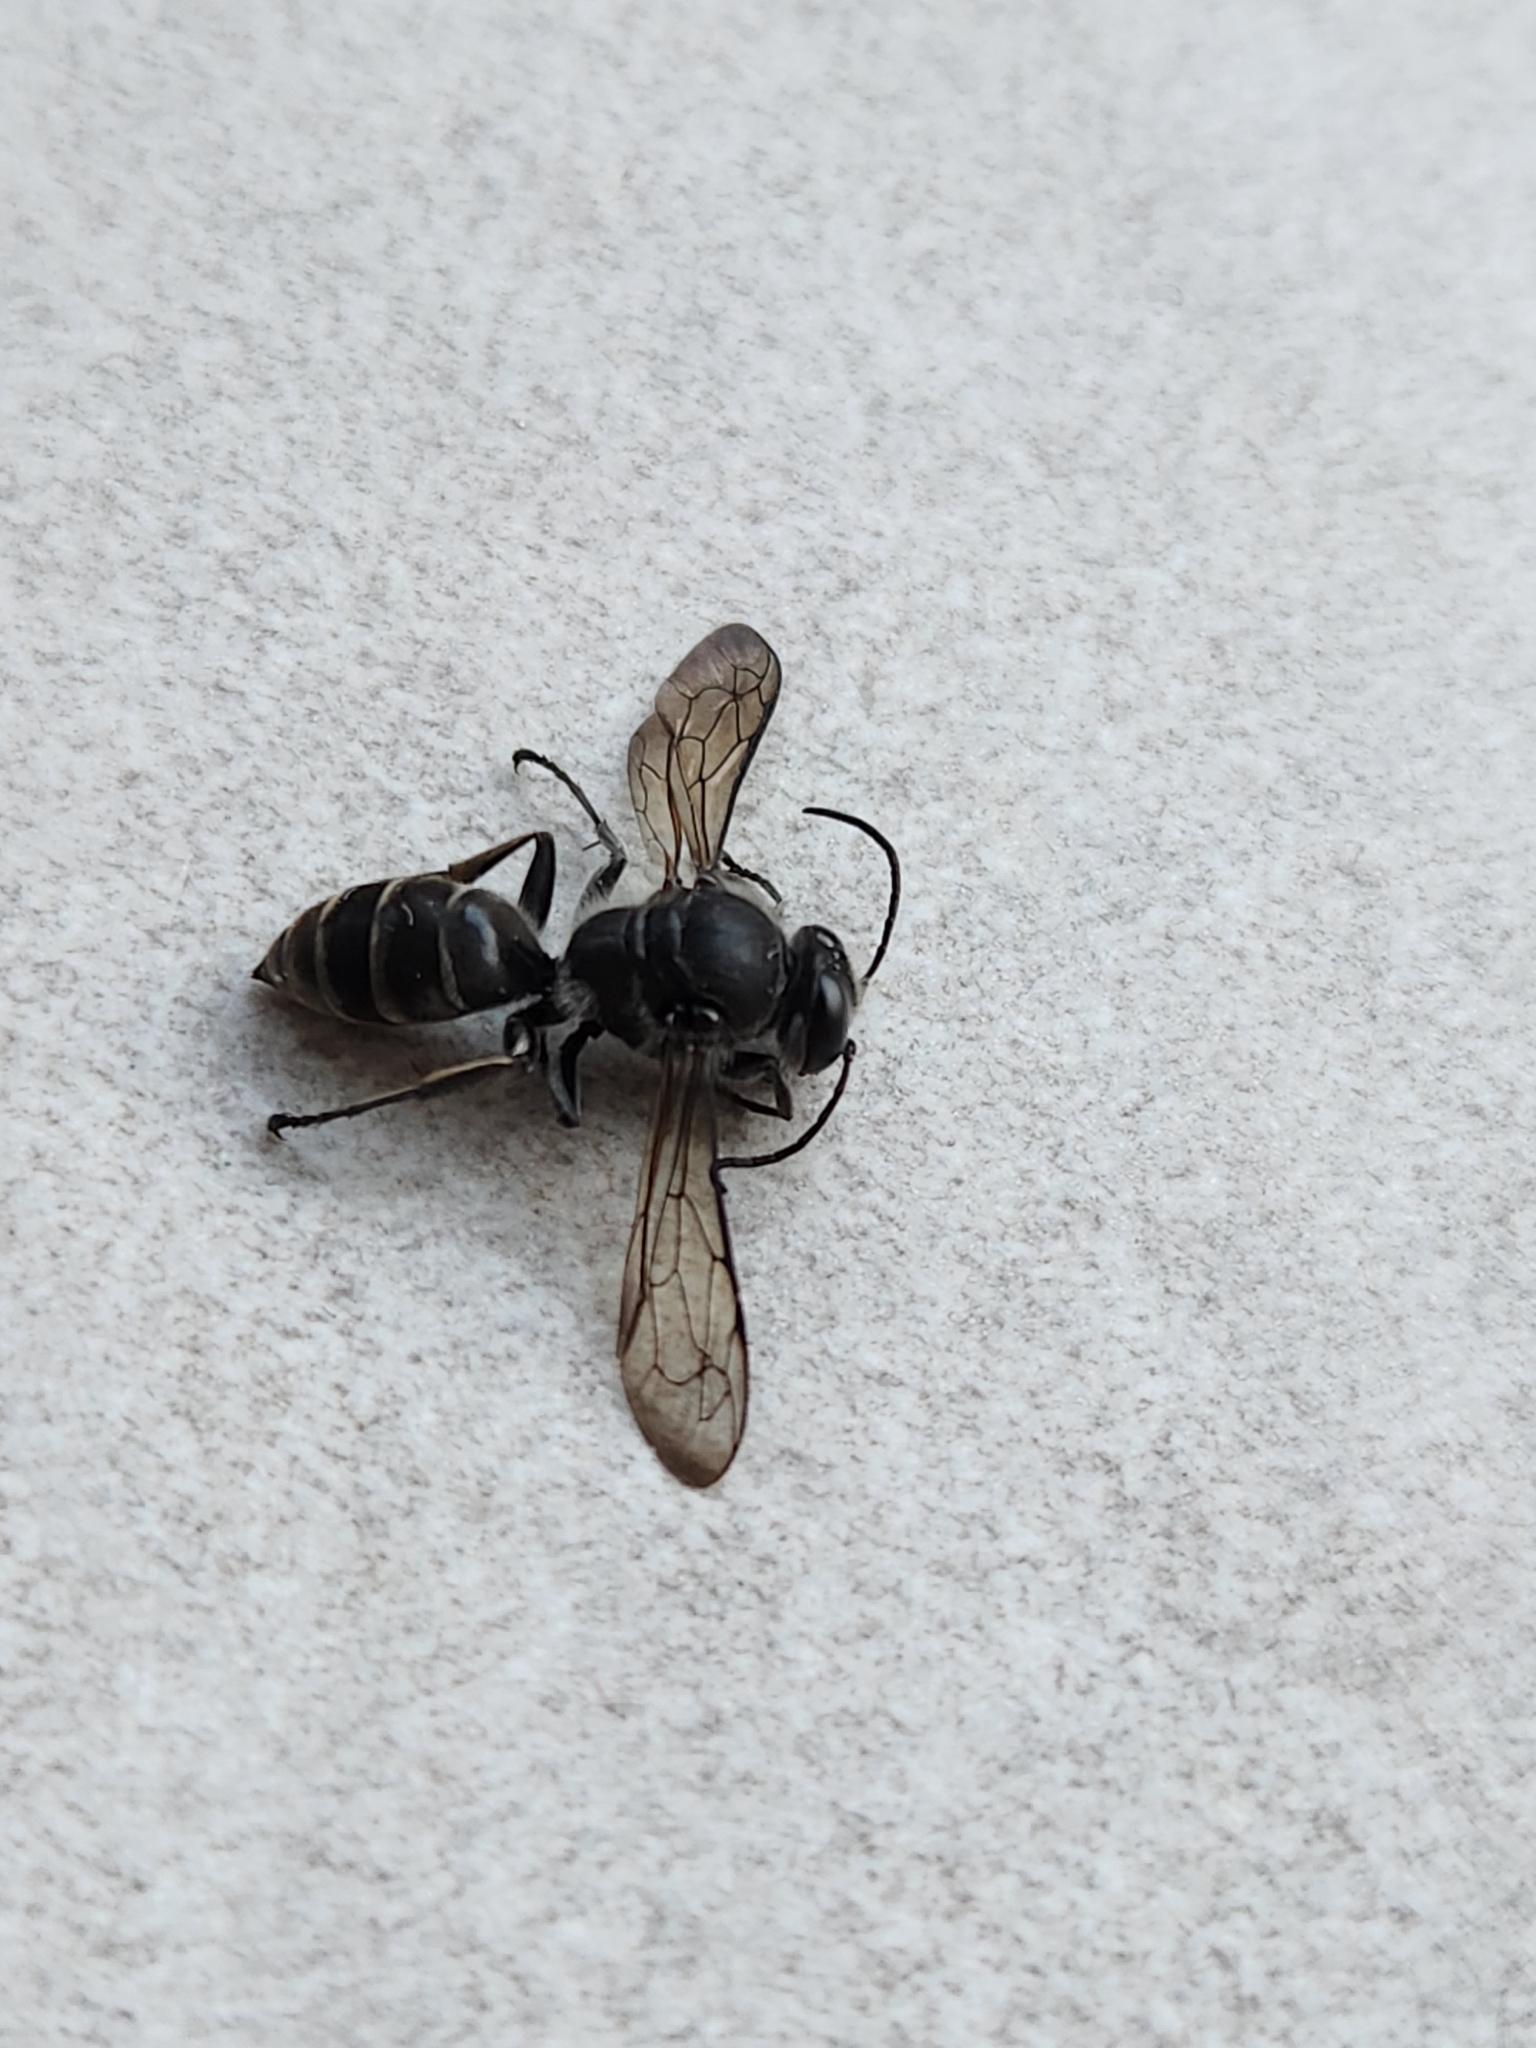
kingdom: Animalia
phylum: Arthropoda
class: Insecta
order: Hymenoptera
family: Crabronidae
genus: Pison
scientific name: Pison spinolae
